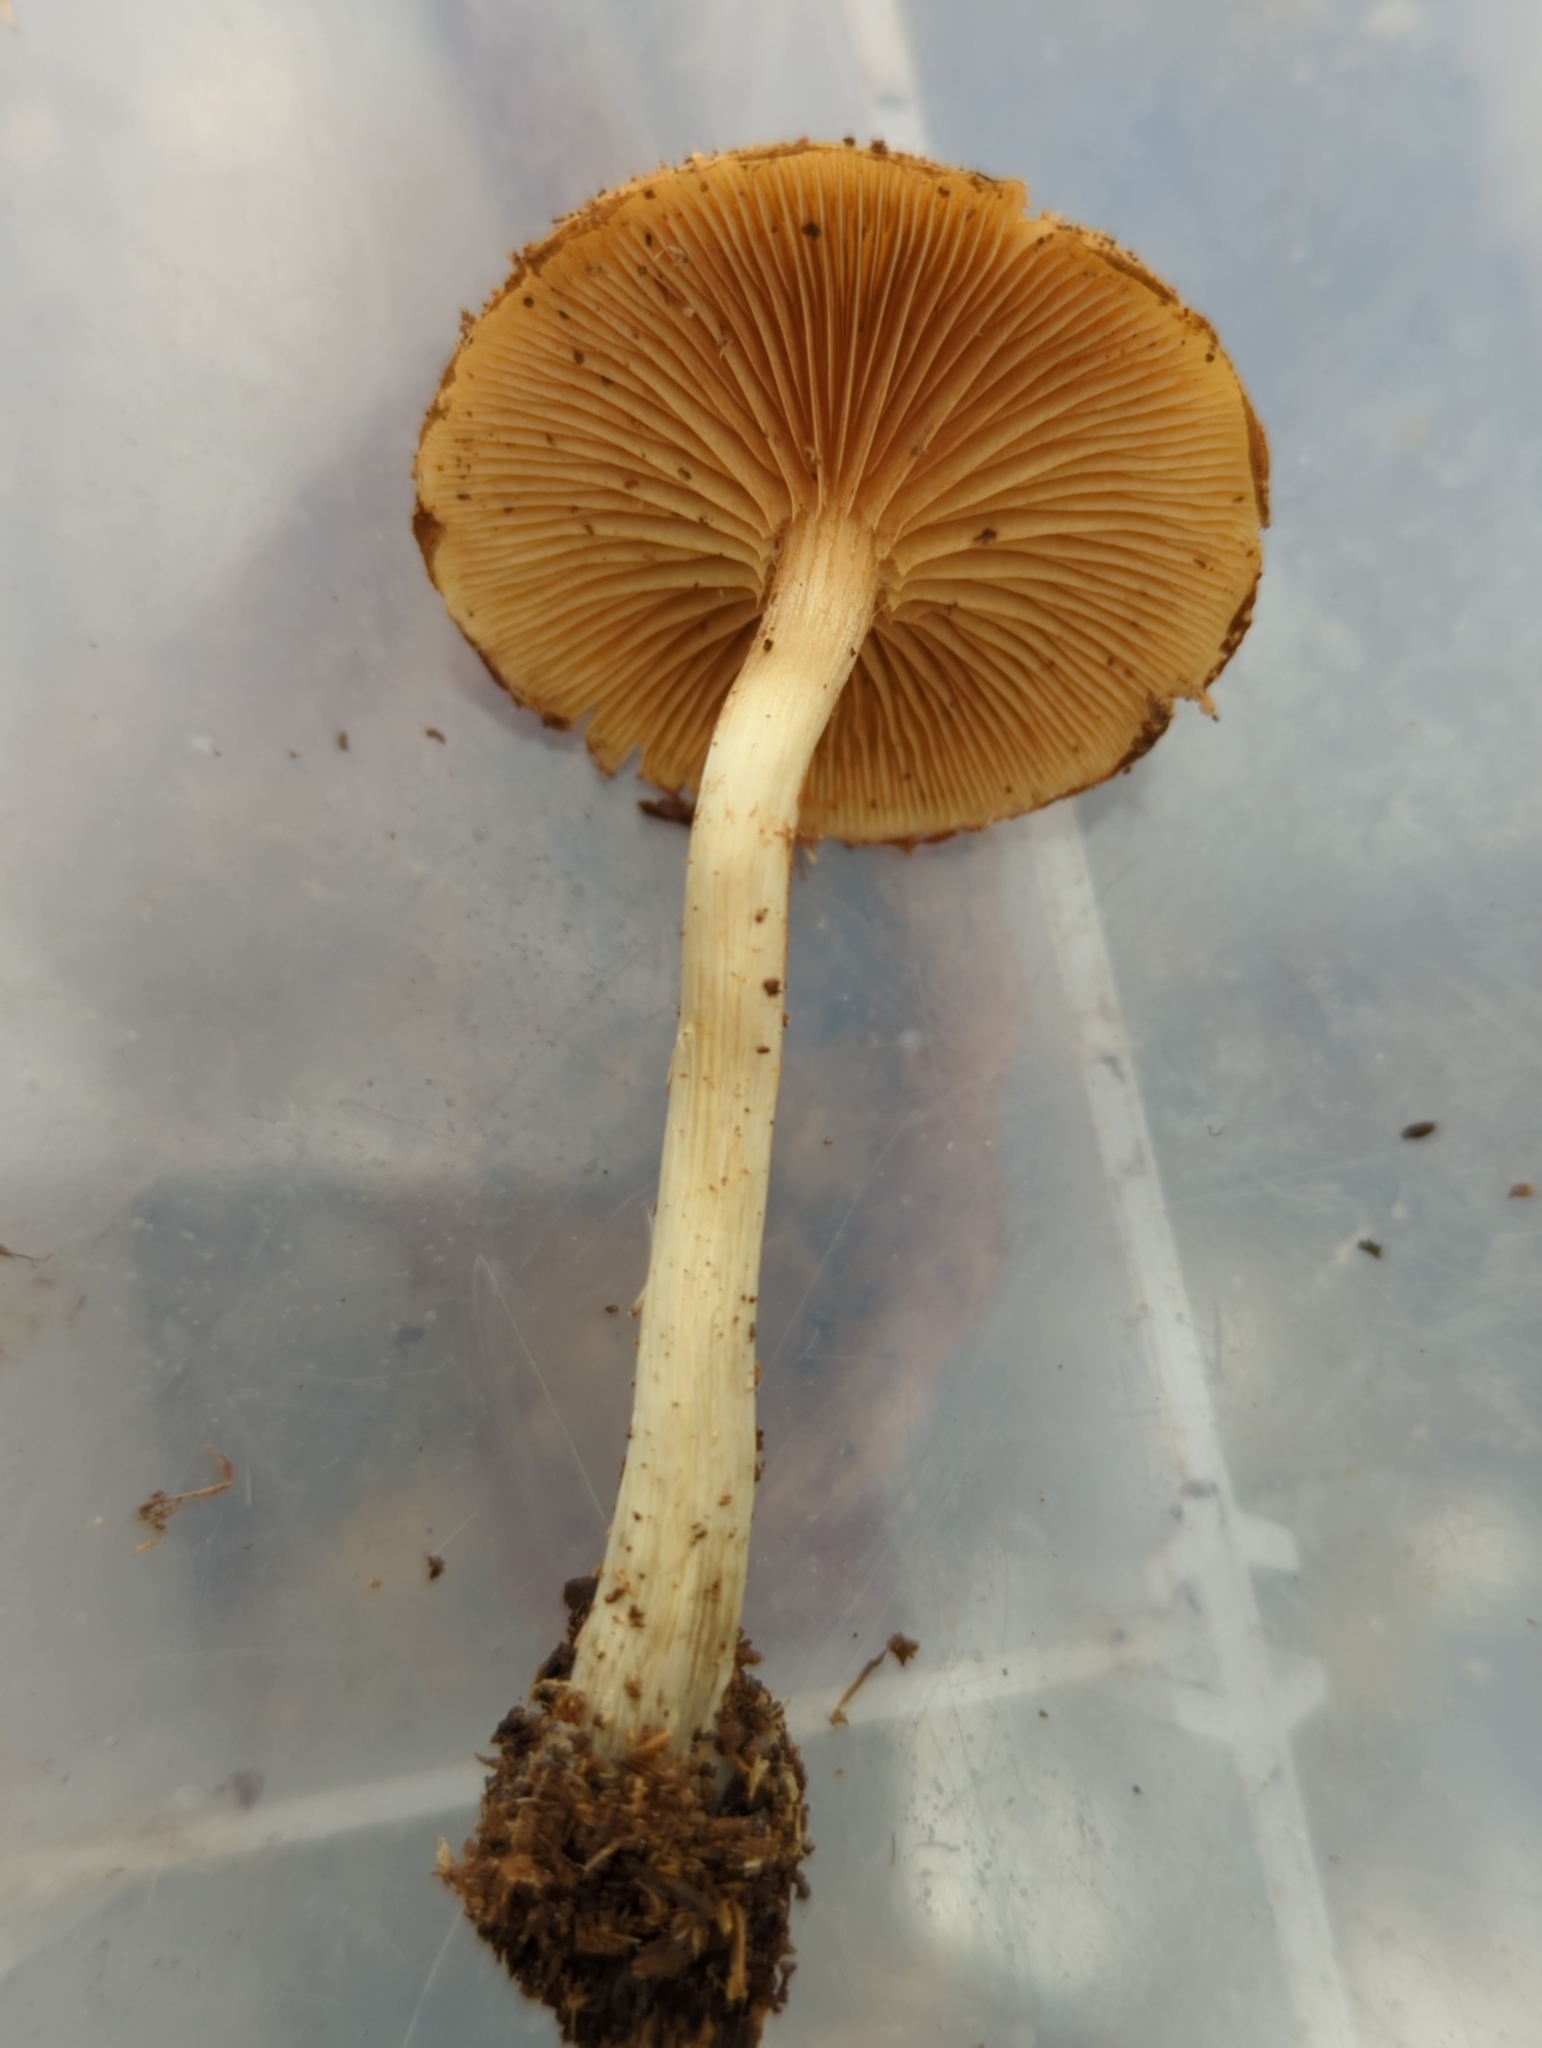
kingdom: Fungi
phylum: Basidiomycota
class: Agaricomycetes
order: Agaricales
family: Hymenogastraceae
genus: Galerina
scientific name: Galerina marginata
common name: Funeral bell
